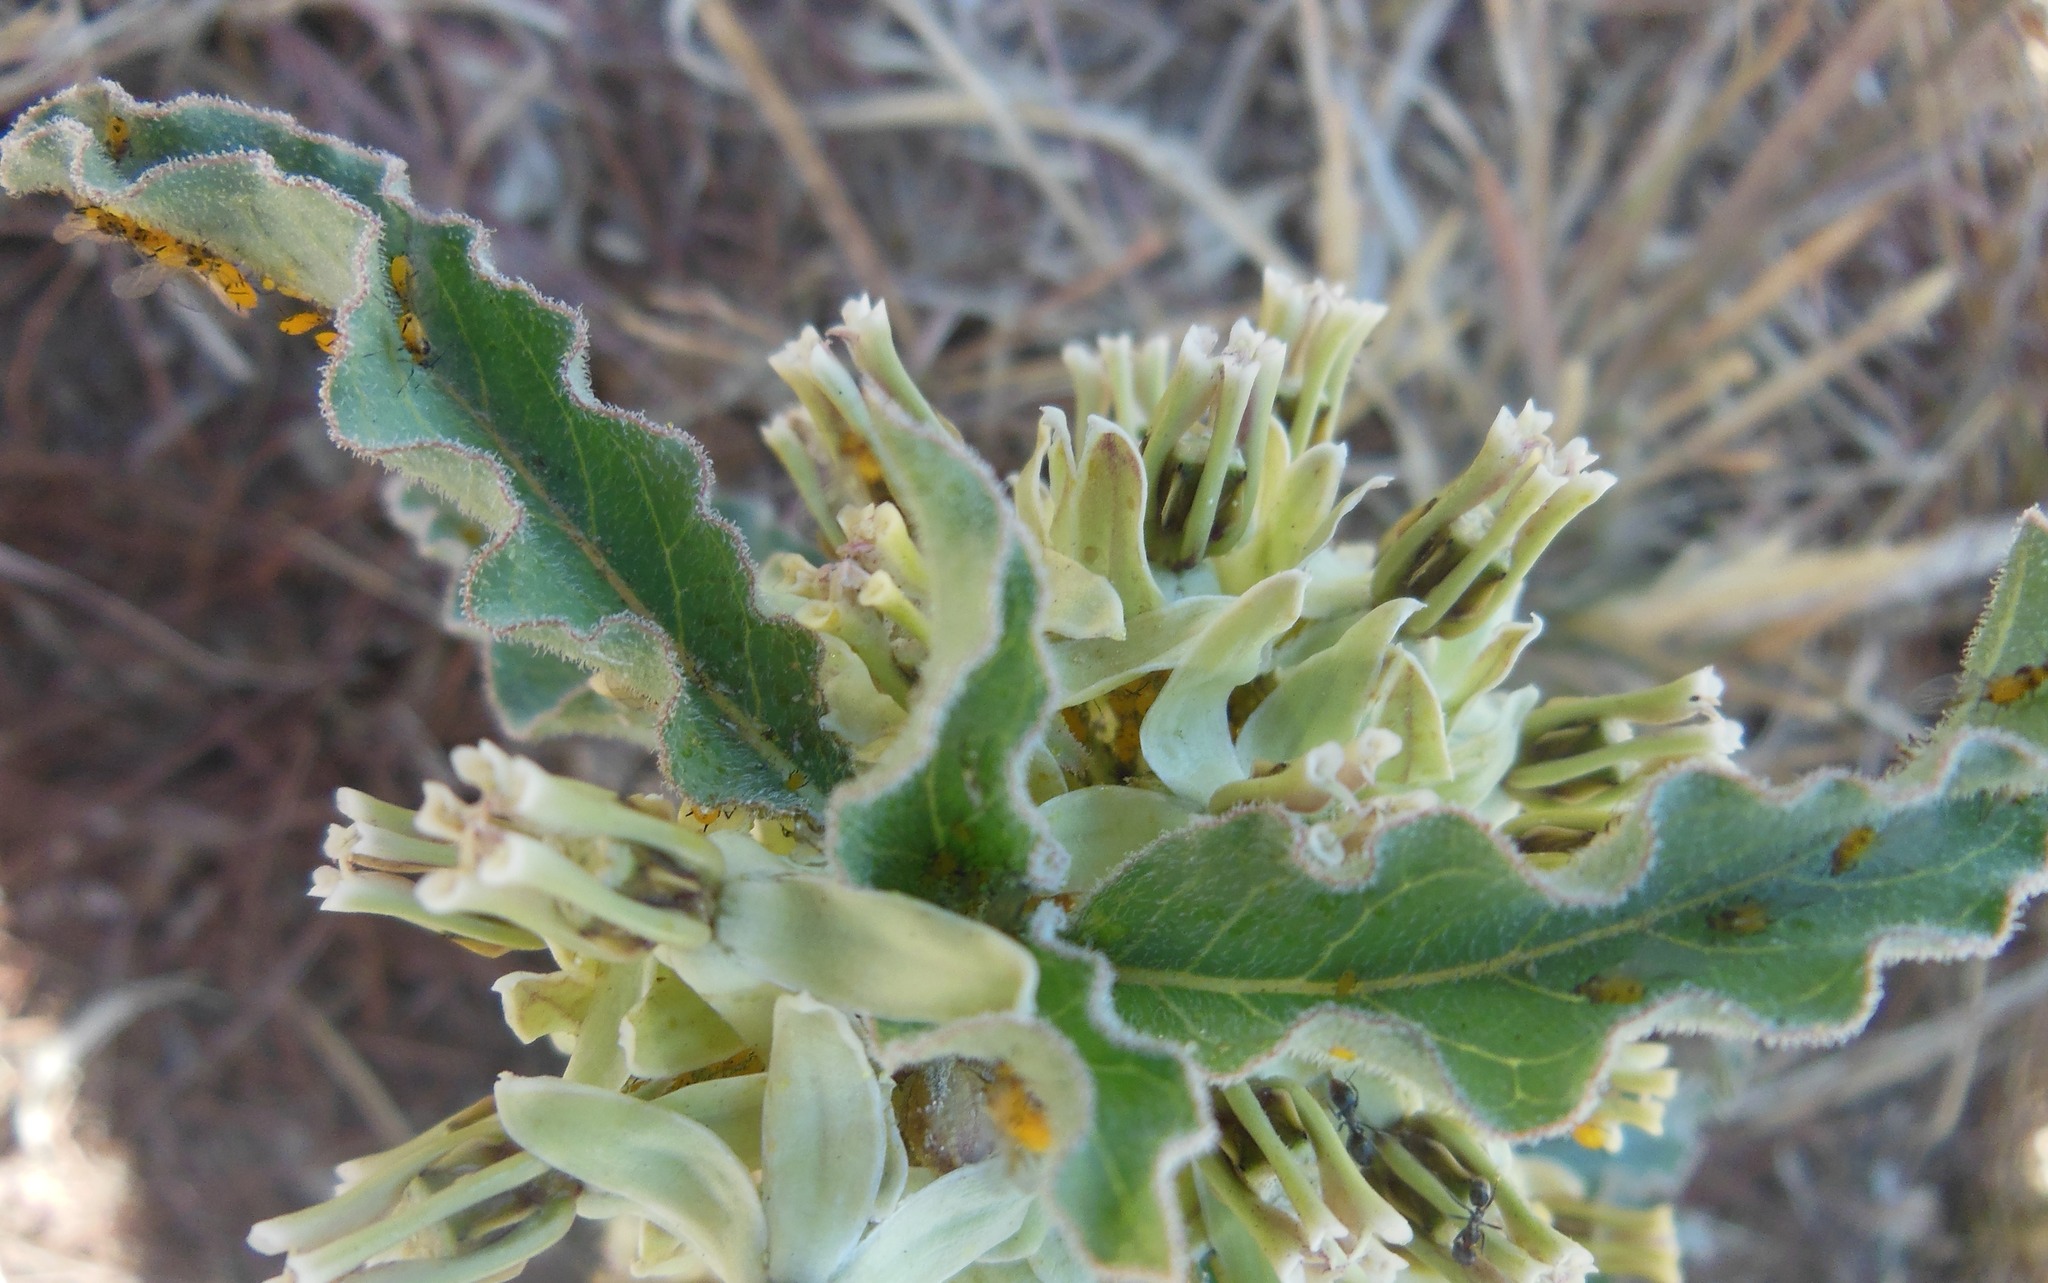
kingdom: Animalia
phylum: Arthropoda
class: Insecta
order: Hemiptera
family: Aphididae
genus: Aphis
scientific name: Aphis nerii
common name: Oleander aphid
